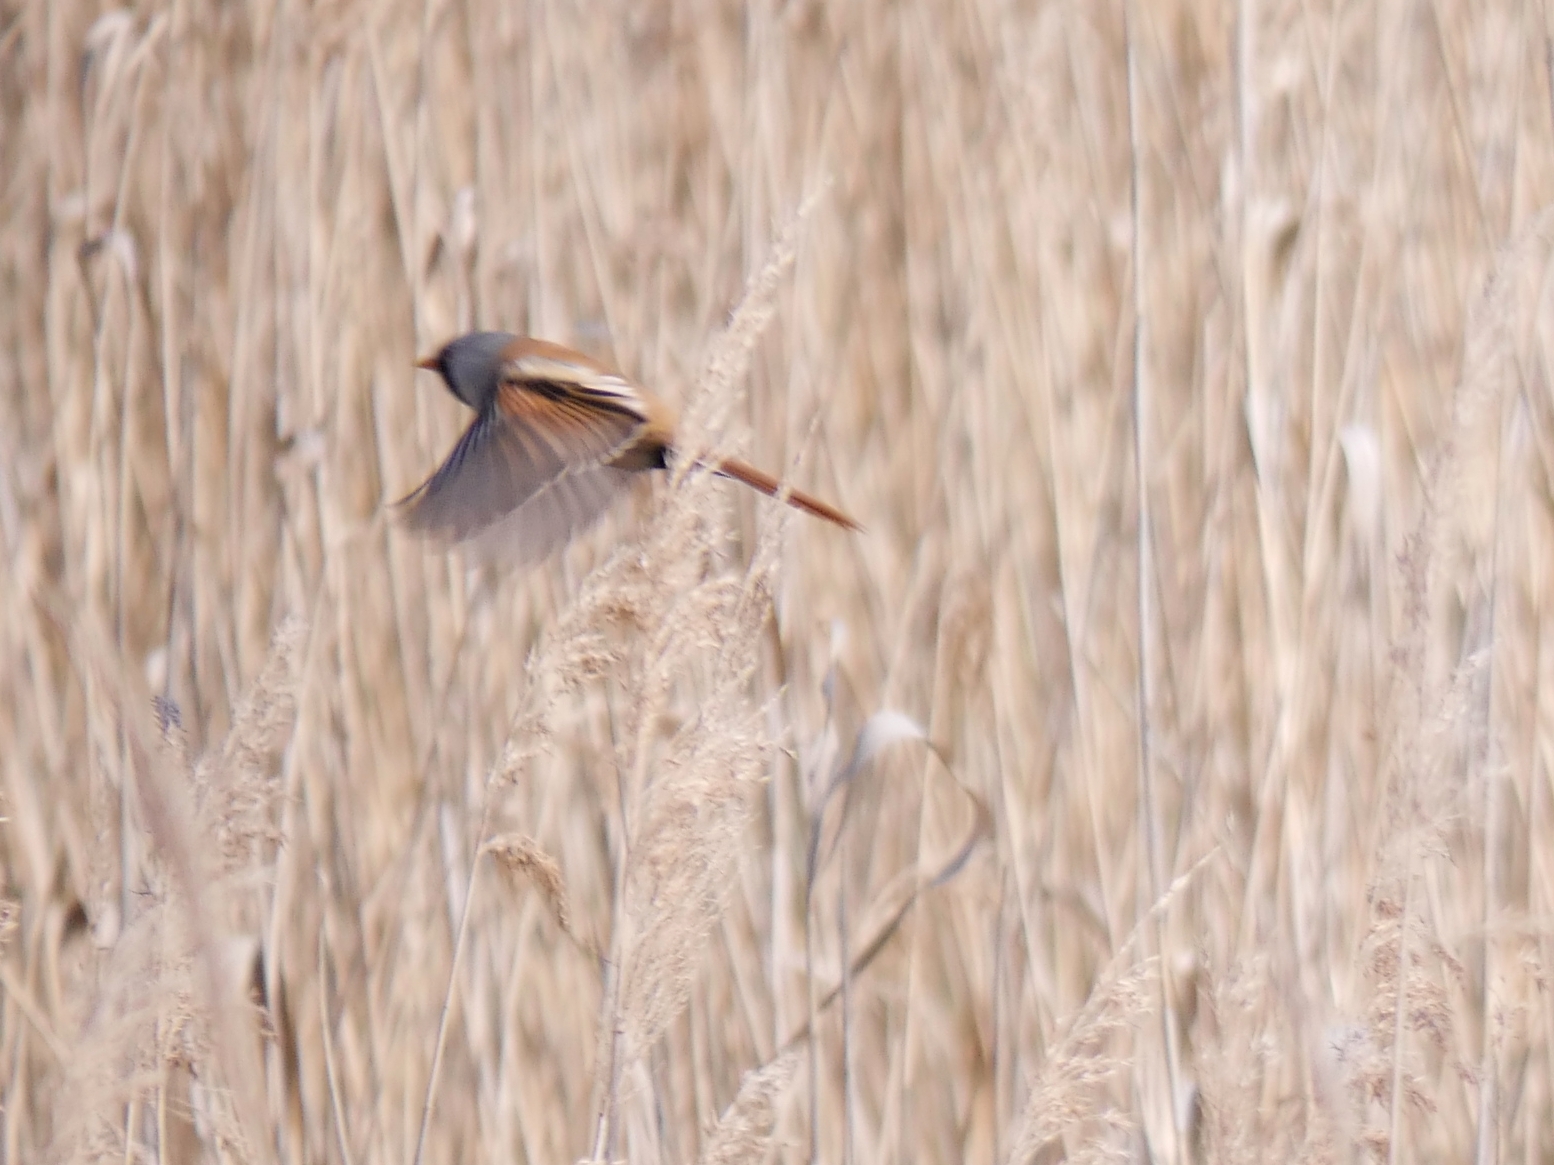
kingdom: Animalia
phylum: Chordata
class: Aves
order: Passeriformes
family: Panuridae
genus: Panurus
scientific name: Panurus biarmicus
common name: Bearded reedling
